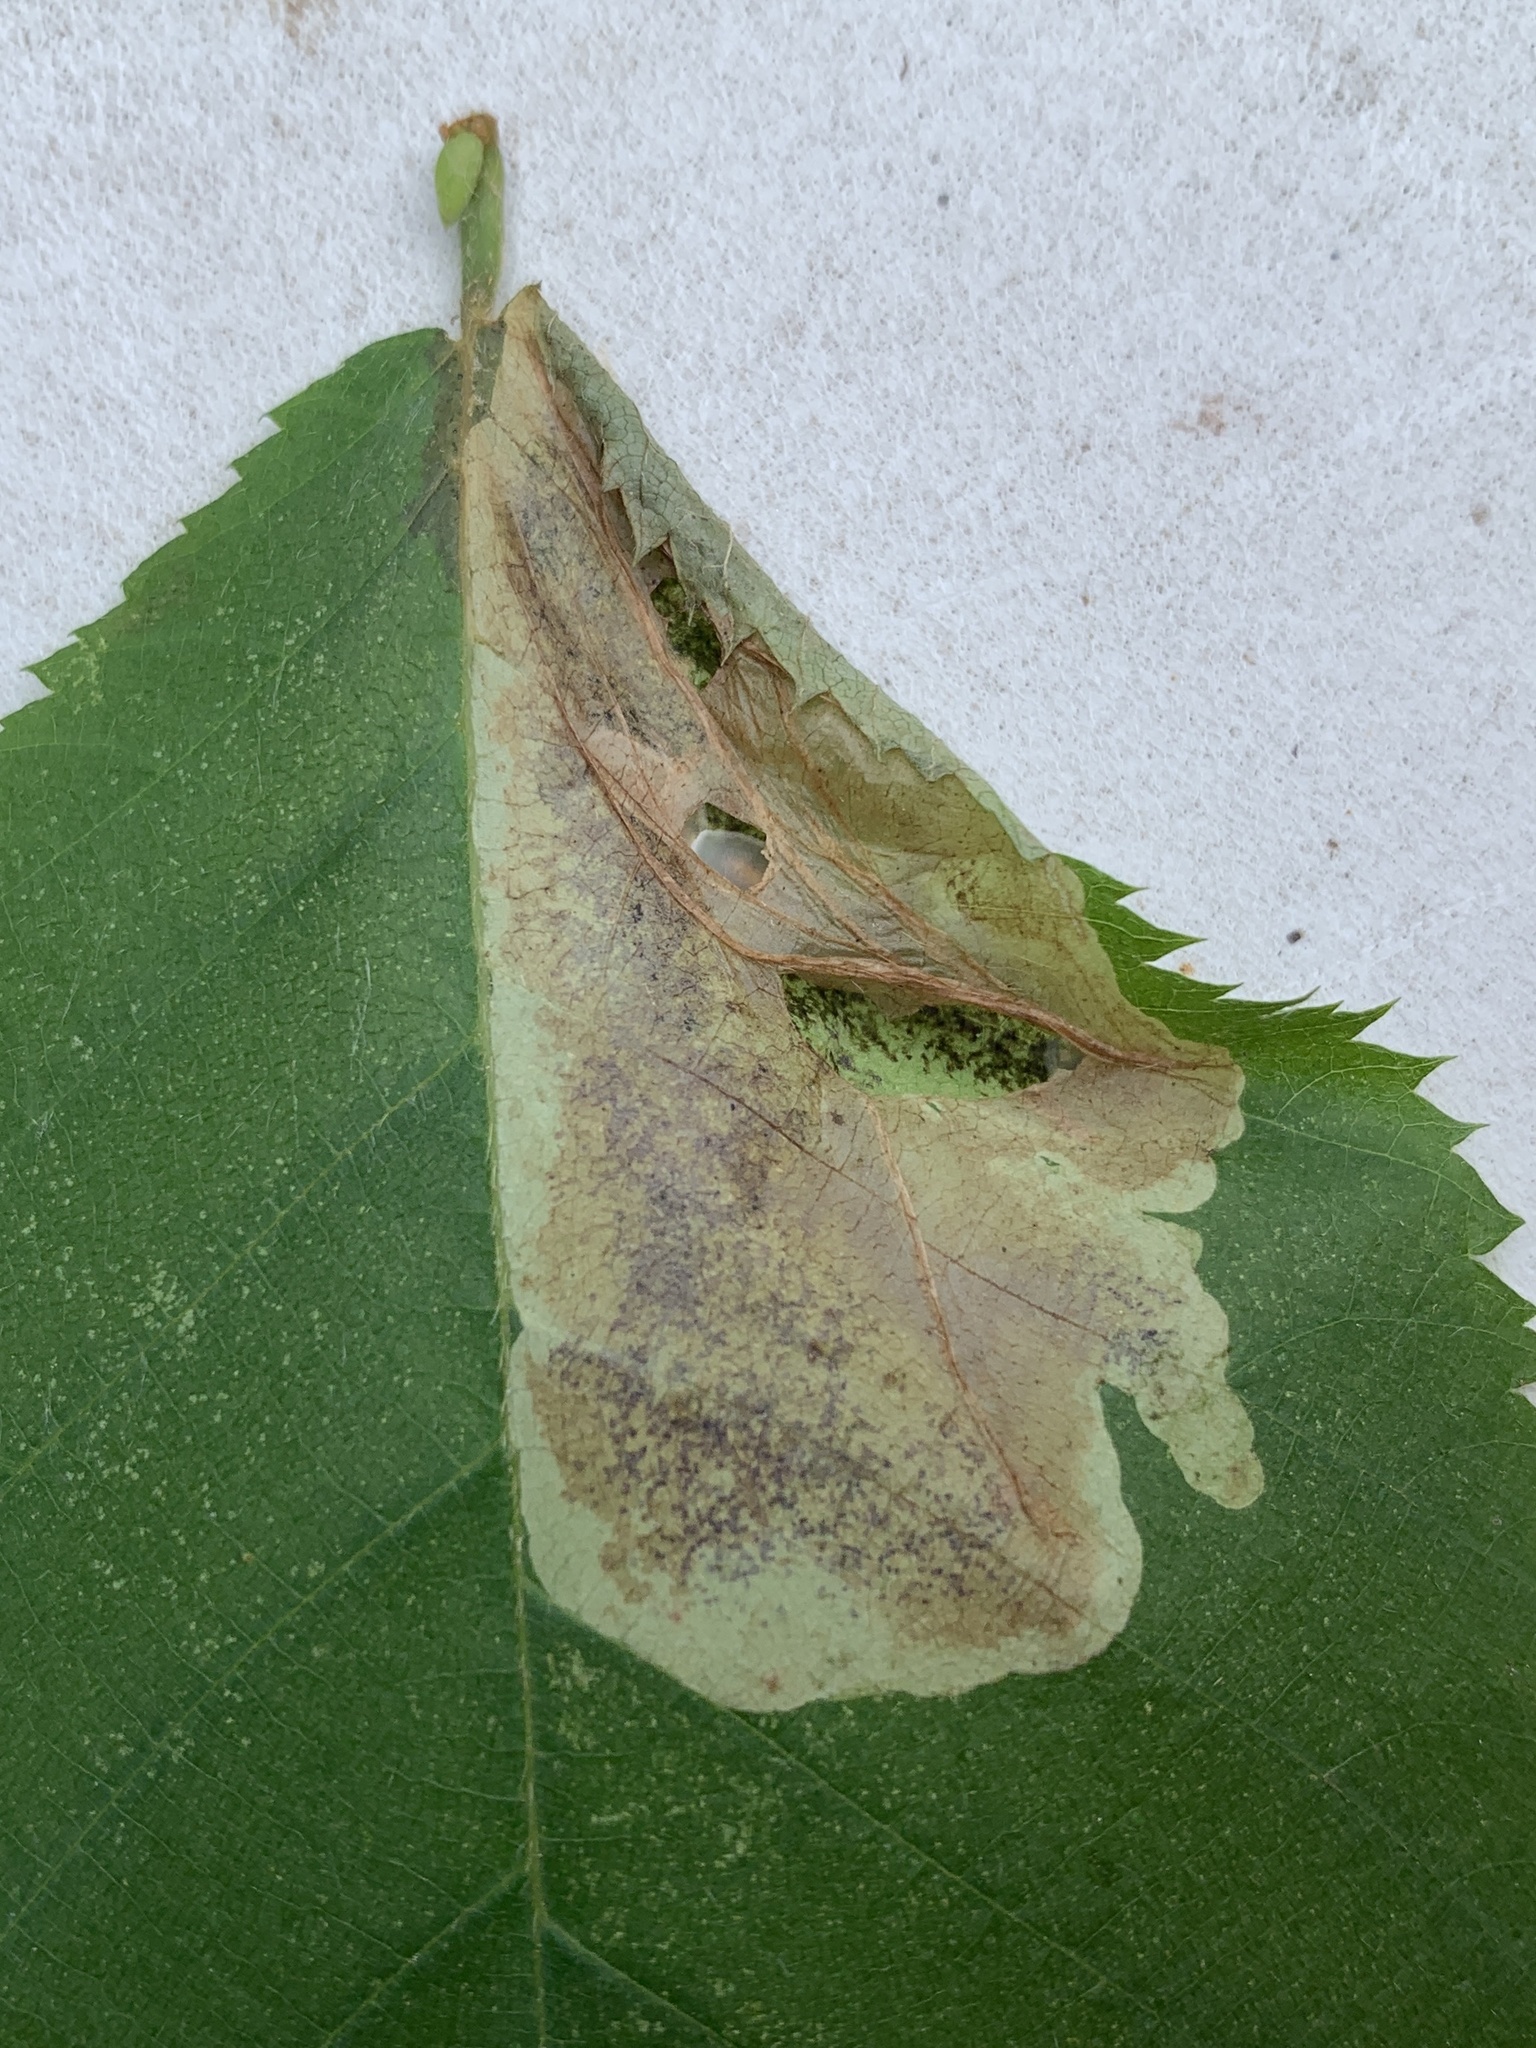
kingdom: Animalia
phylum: Arthropoda
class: Insecta
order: Lepidoptera
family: Gracillariidae
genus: Cameraria
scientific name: Cameraria caryaefoliella
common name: Pecan leafminer moth
